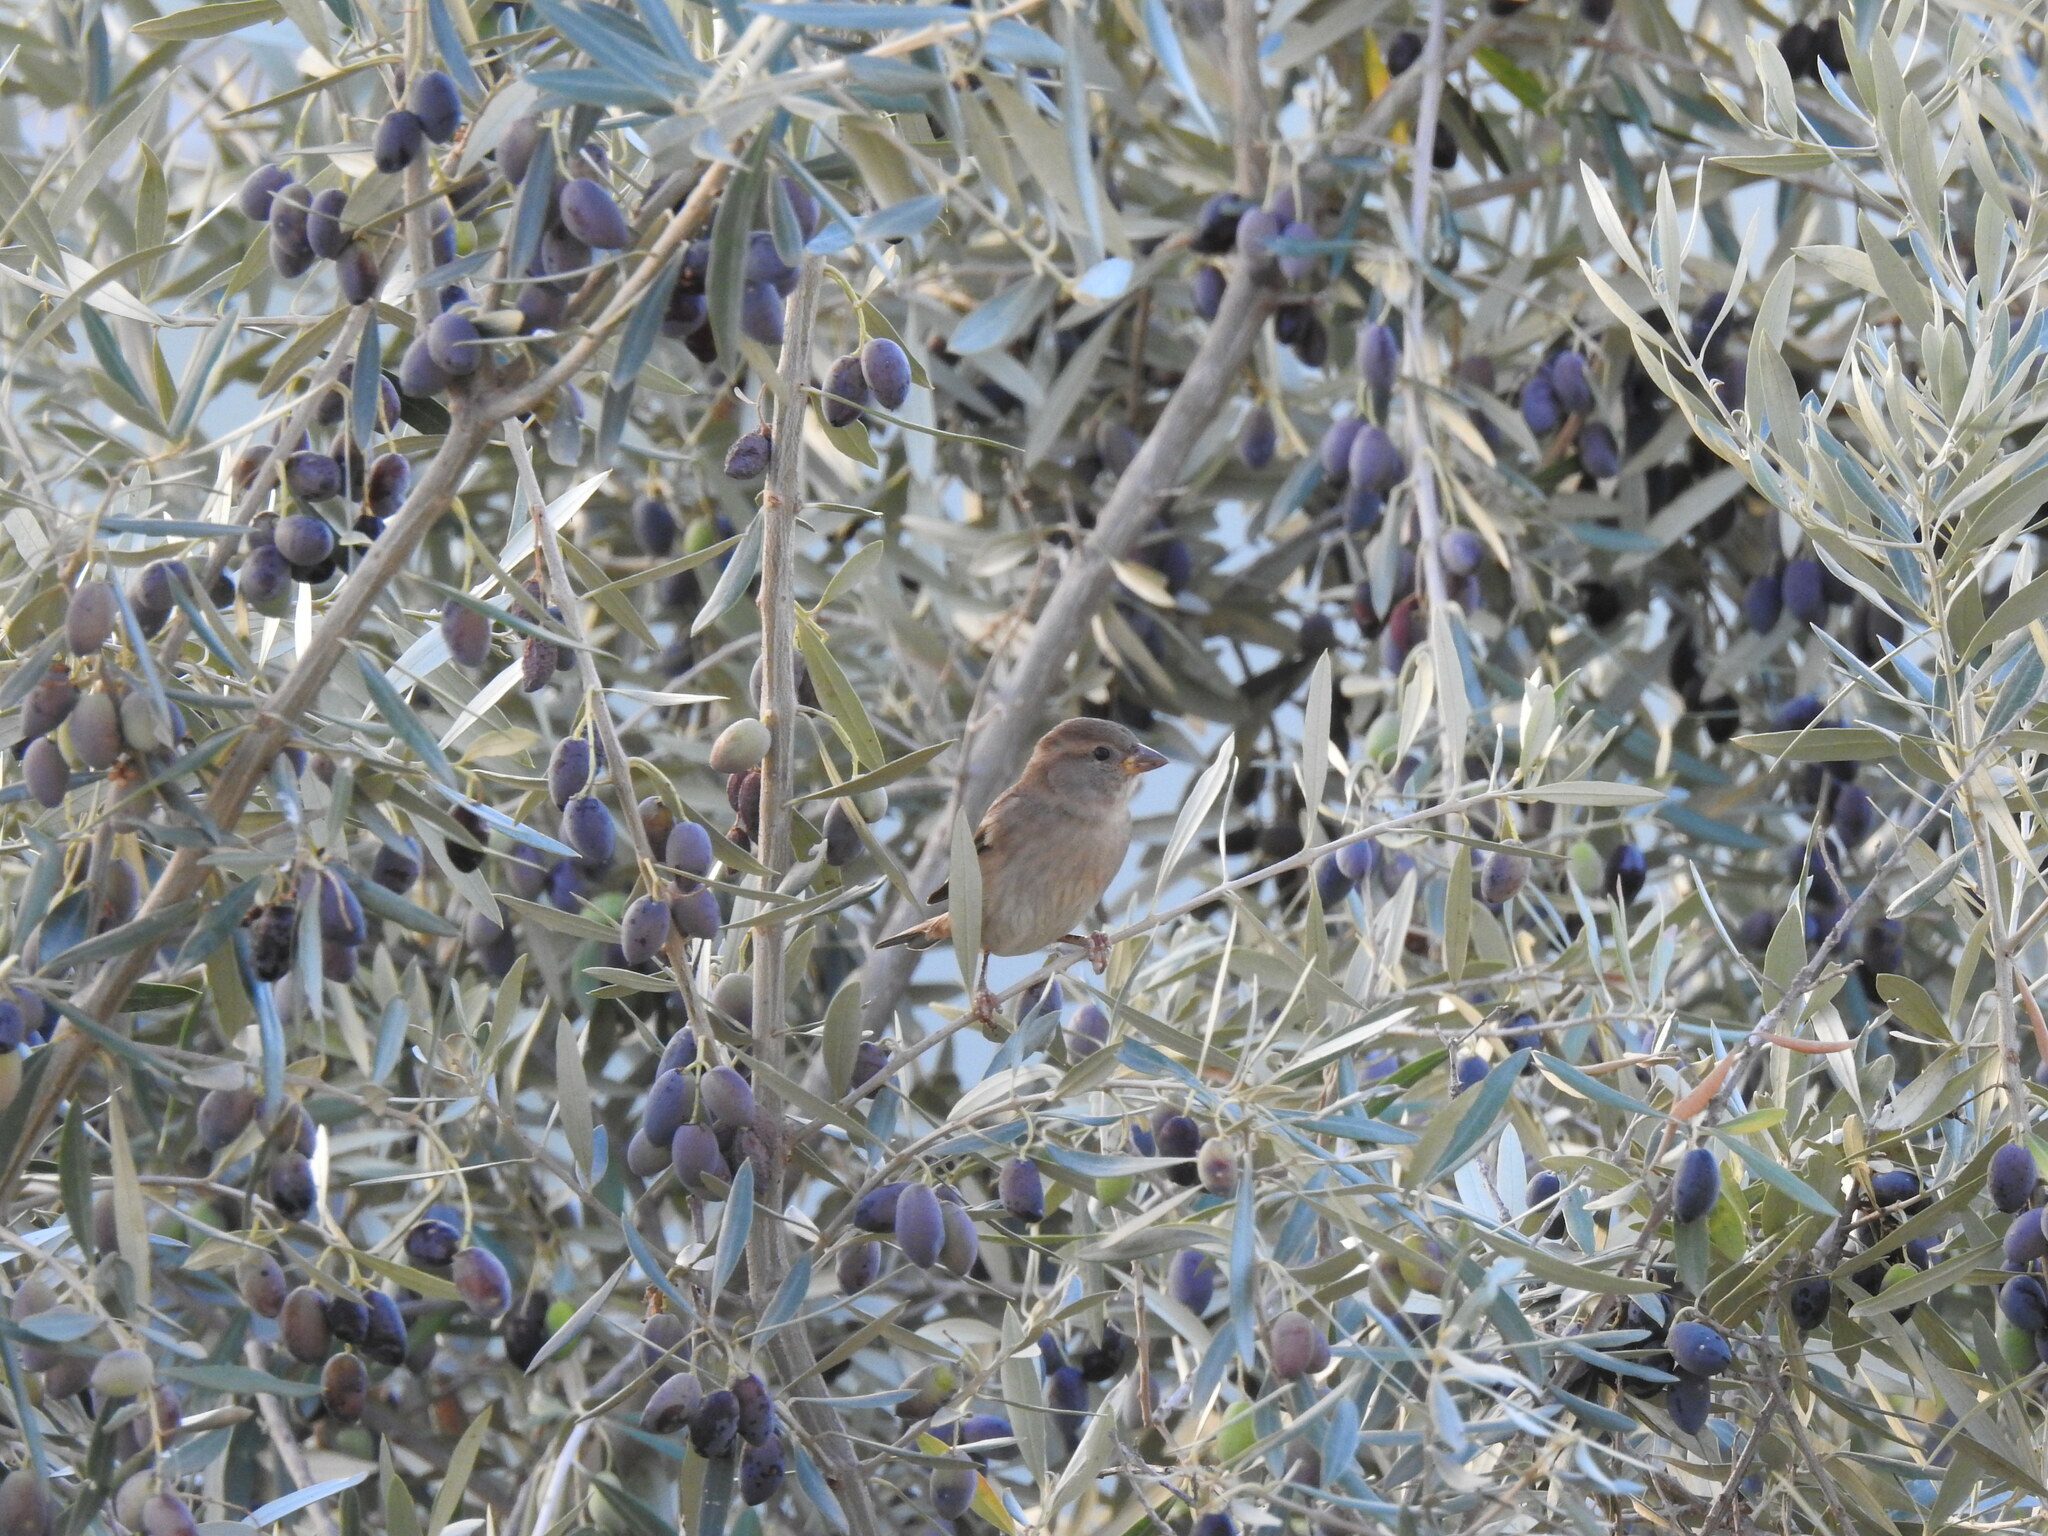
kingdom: Animalia
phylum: Chordata
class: Aves
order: Passeriformes
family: Passeridae
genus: Passer
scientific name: Passer domesticus
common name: House sparrow
